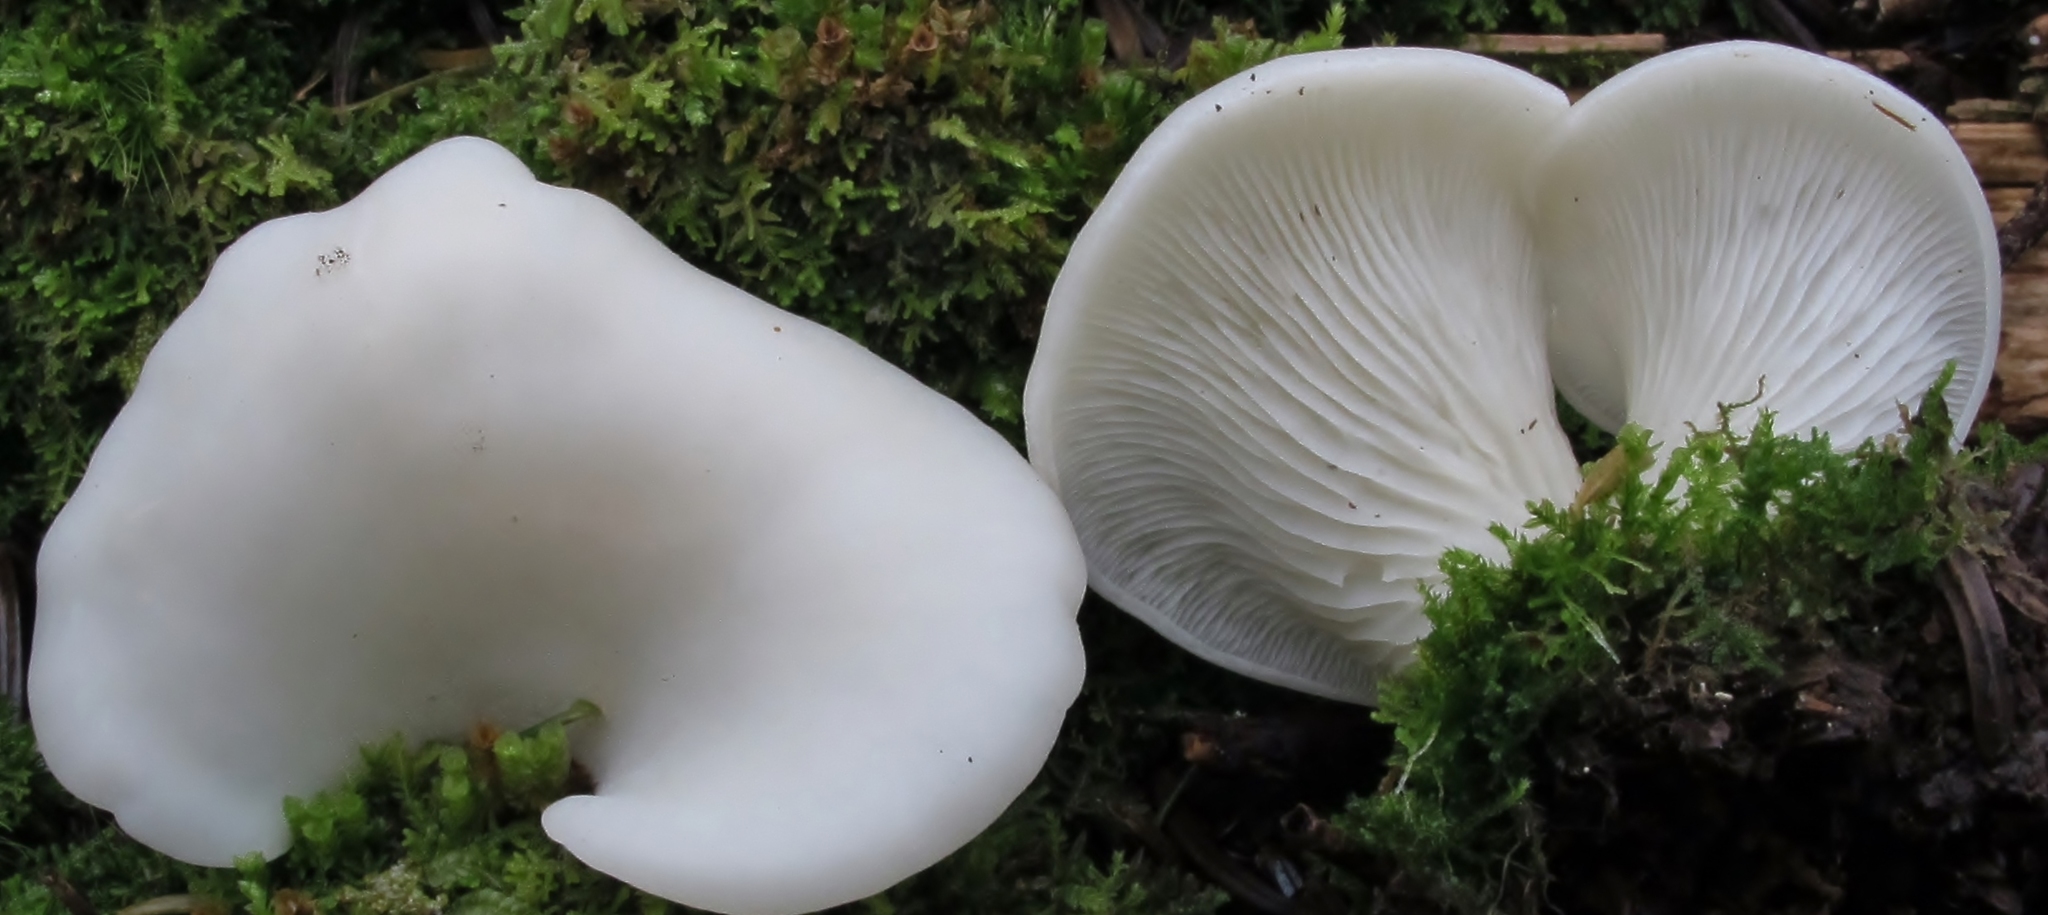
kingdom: Fungi
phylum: Basidiomycota
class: Agaricomycetes
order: Agaricales
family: Marasmiaceae
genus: Pleurocybella
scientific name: Pleurocybella porrigens
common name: Angel's wings
